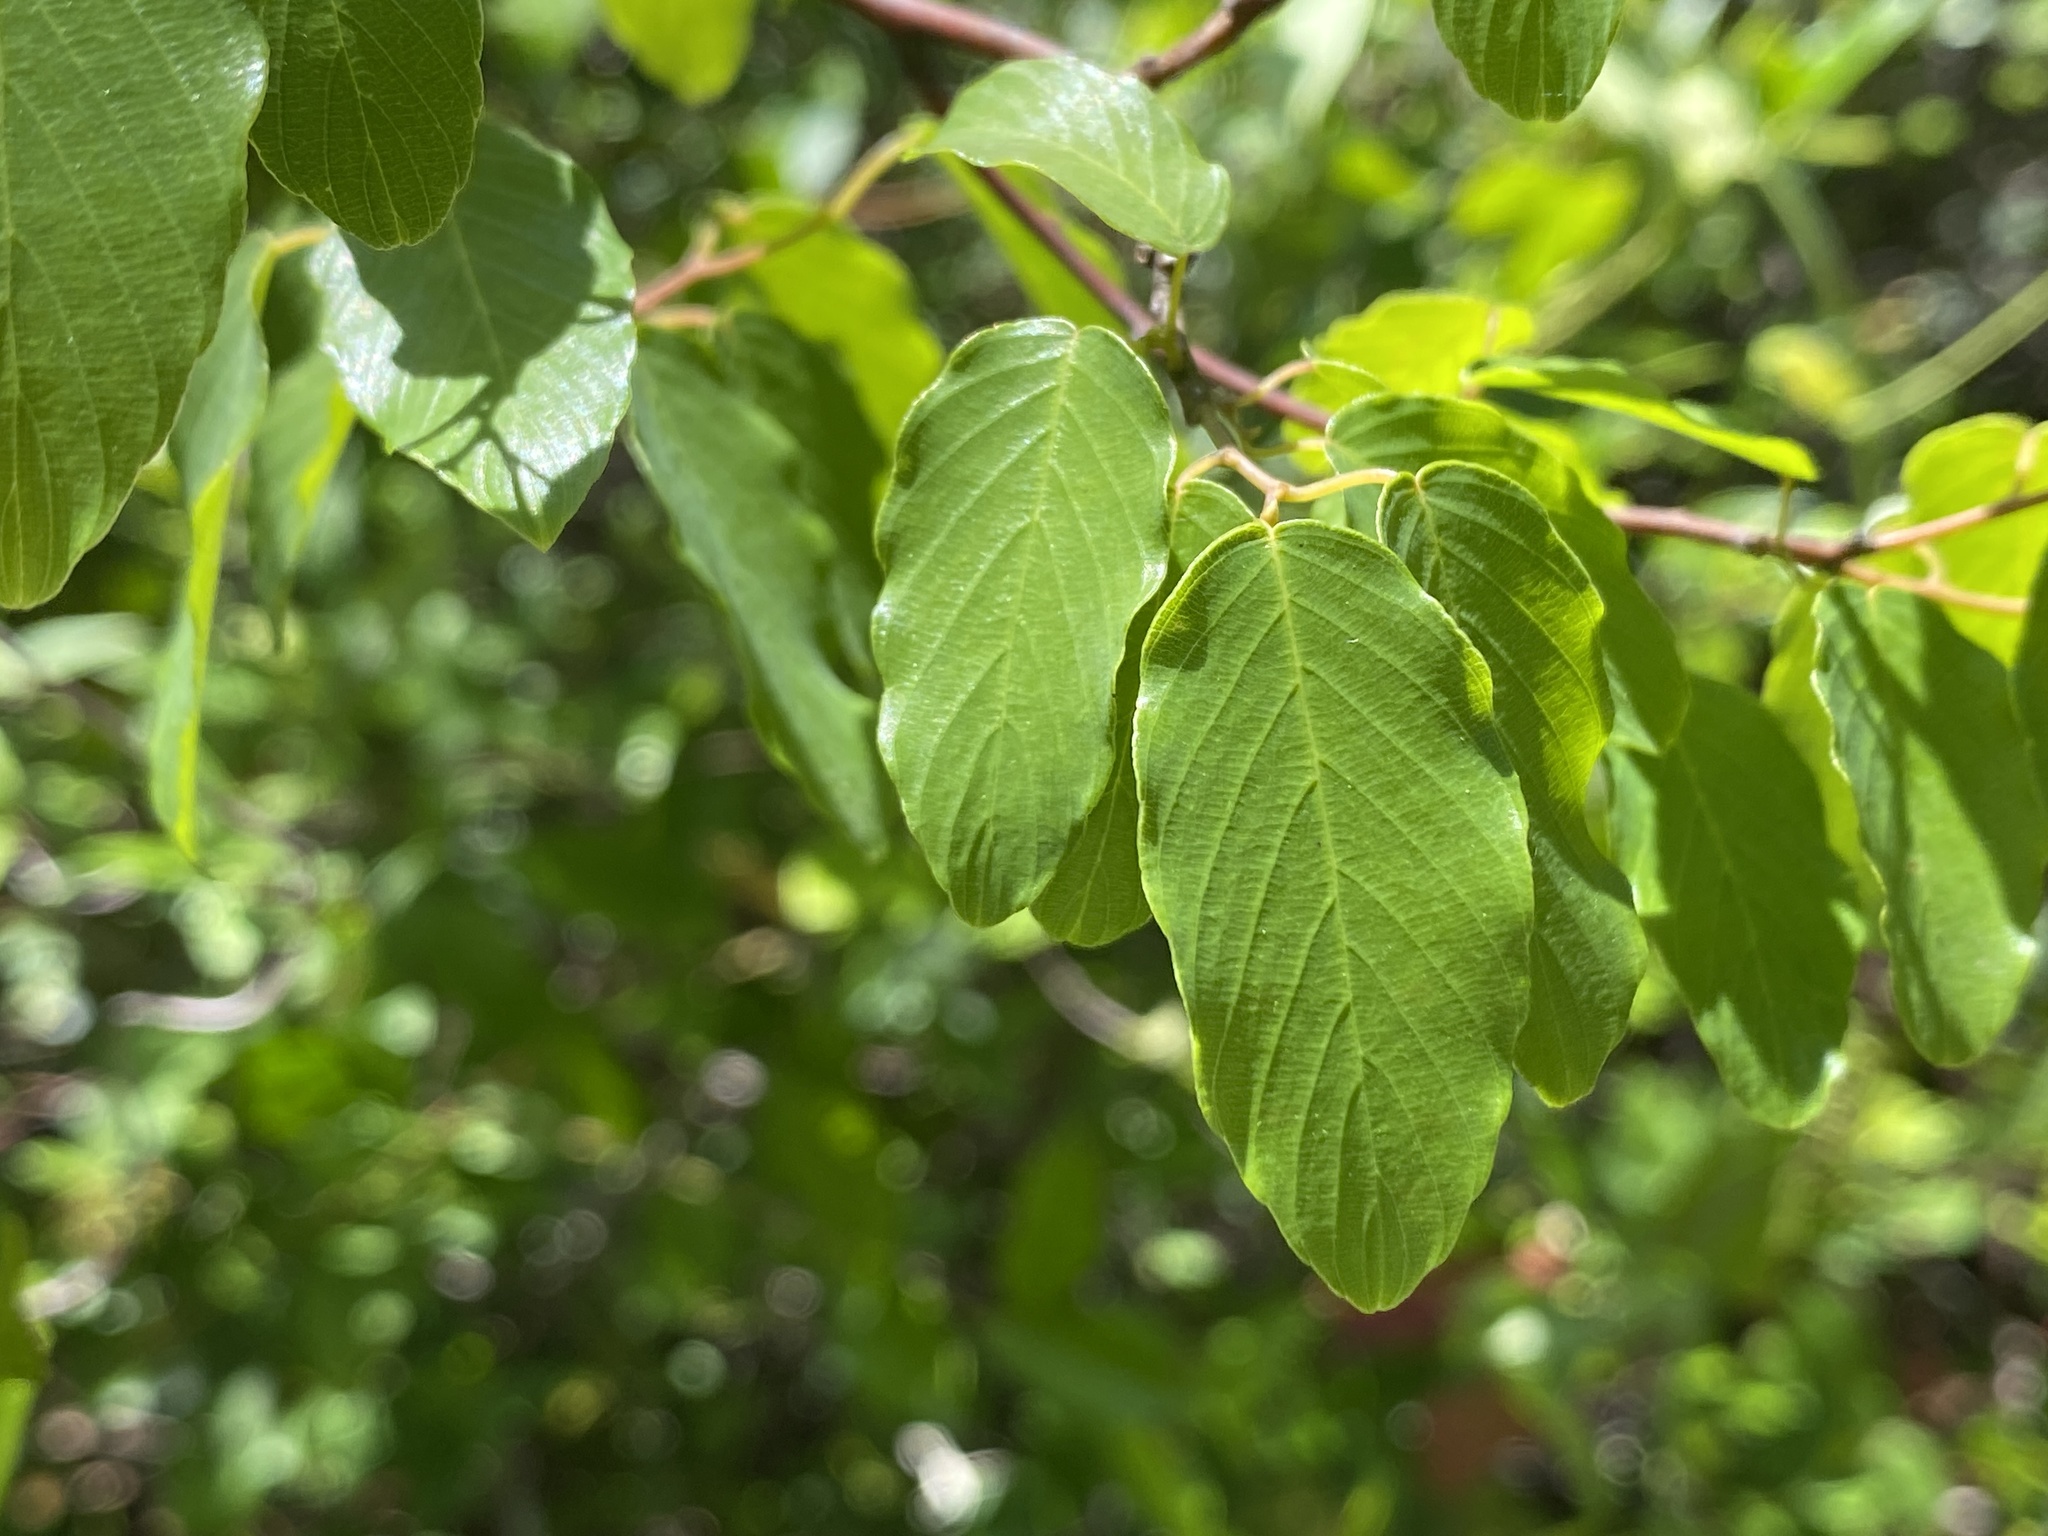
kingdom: Plantae
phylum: Tracheophyta
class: Magnoliopsida
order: Rosales
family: Rhamnaceae
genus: Berchemia
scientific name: Berchemia scandens
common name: Supplejack
